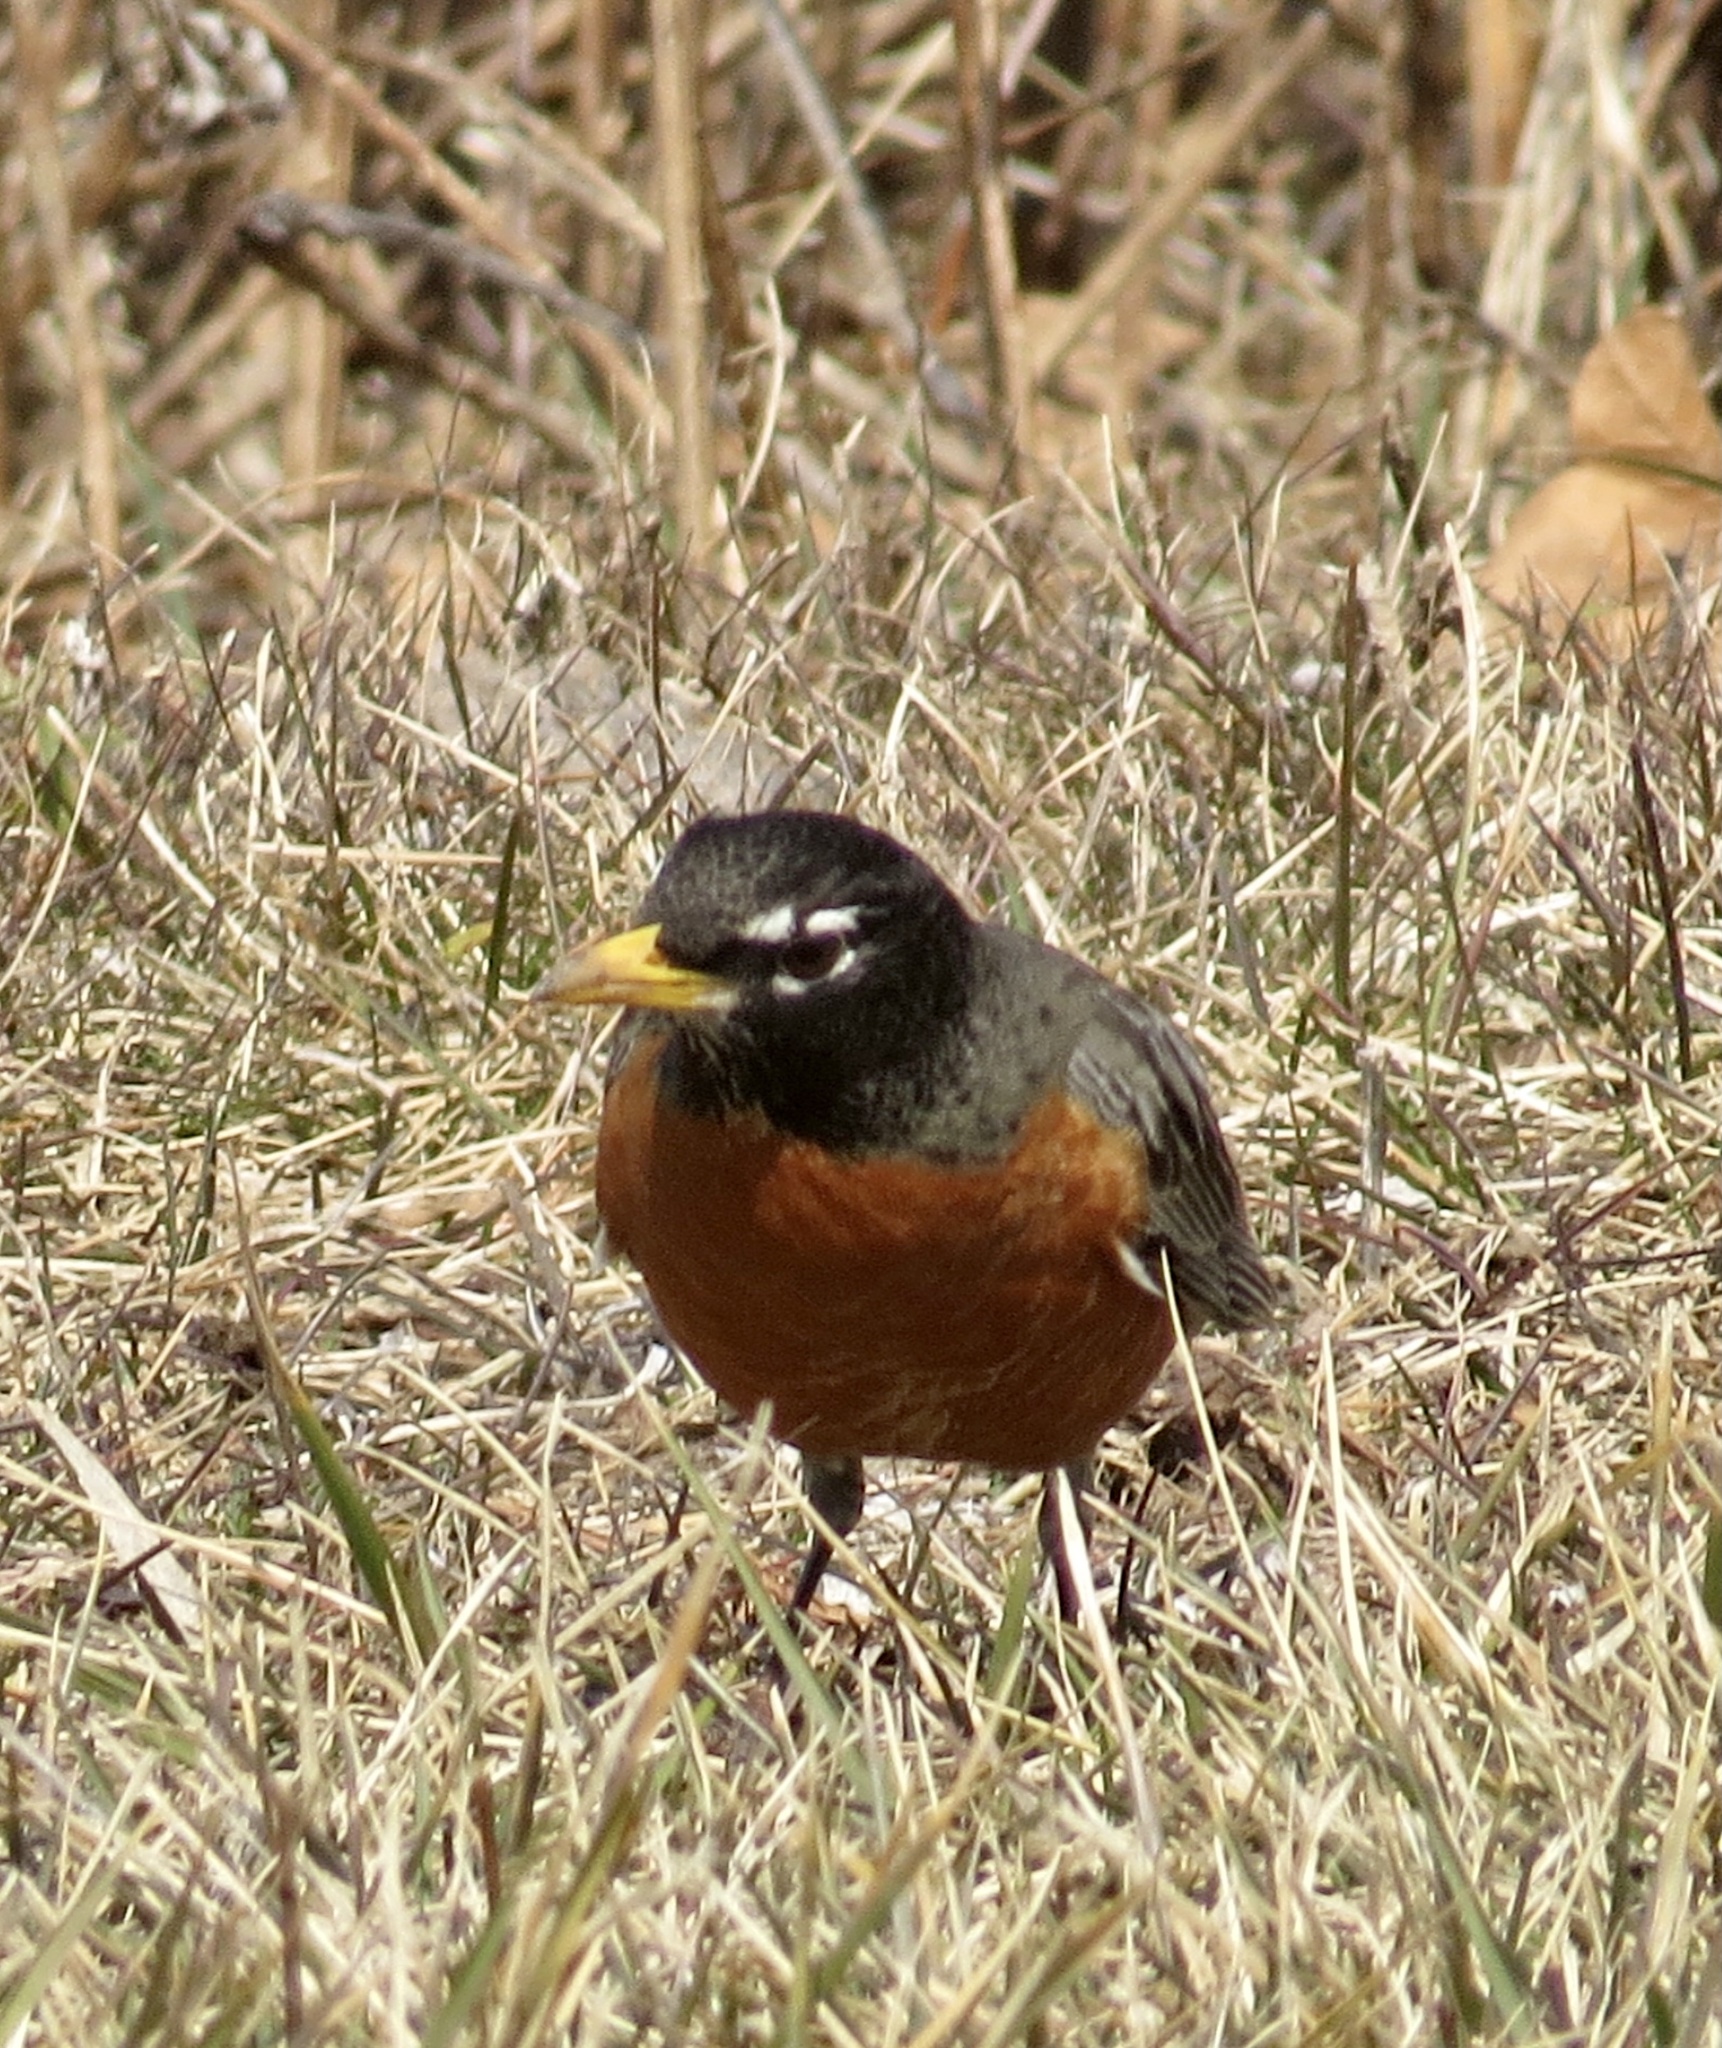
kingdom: Animalia
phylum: Chordata
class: Aves
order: Passeriformes
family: Turdidae
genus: Turdus
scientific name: Turdus migratorius
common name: American robin
